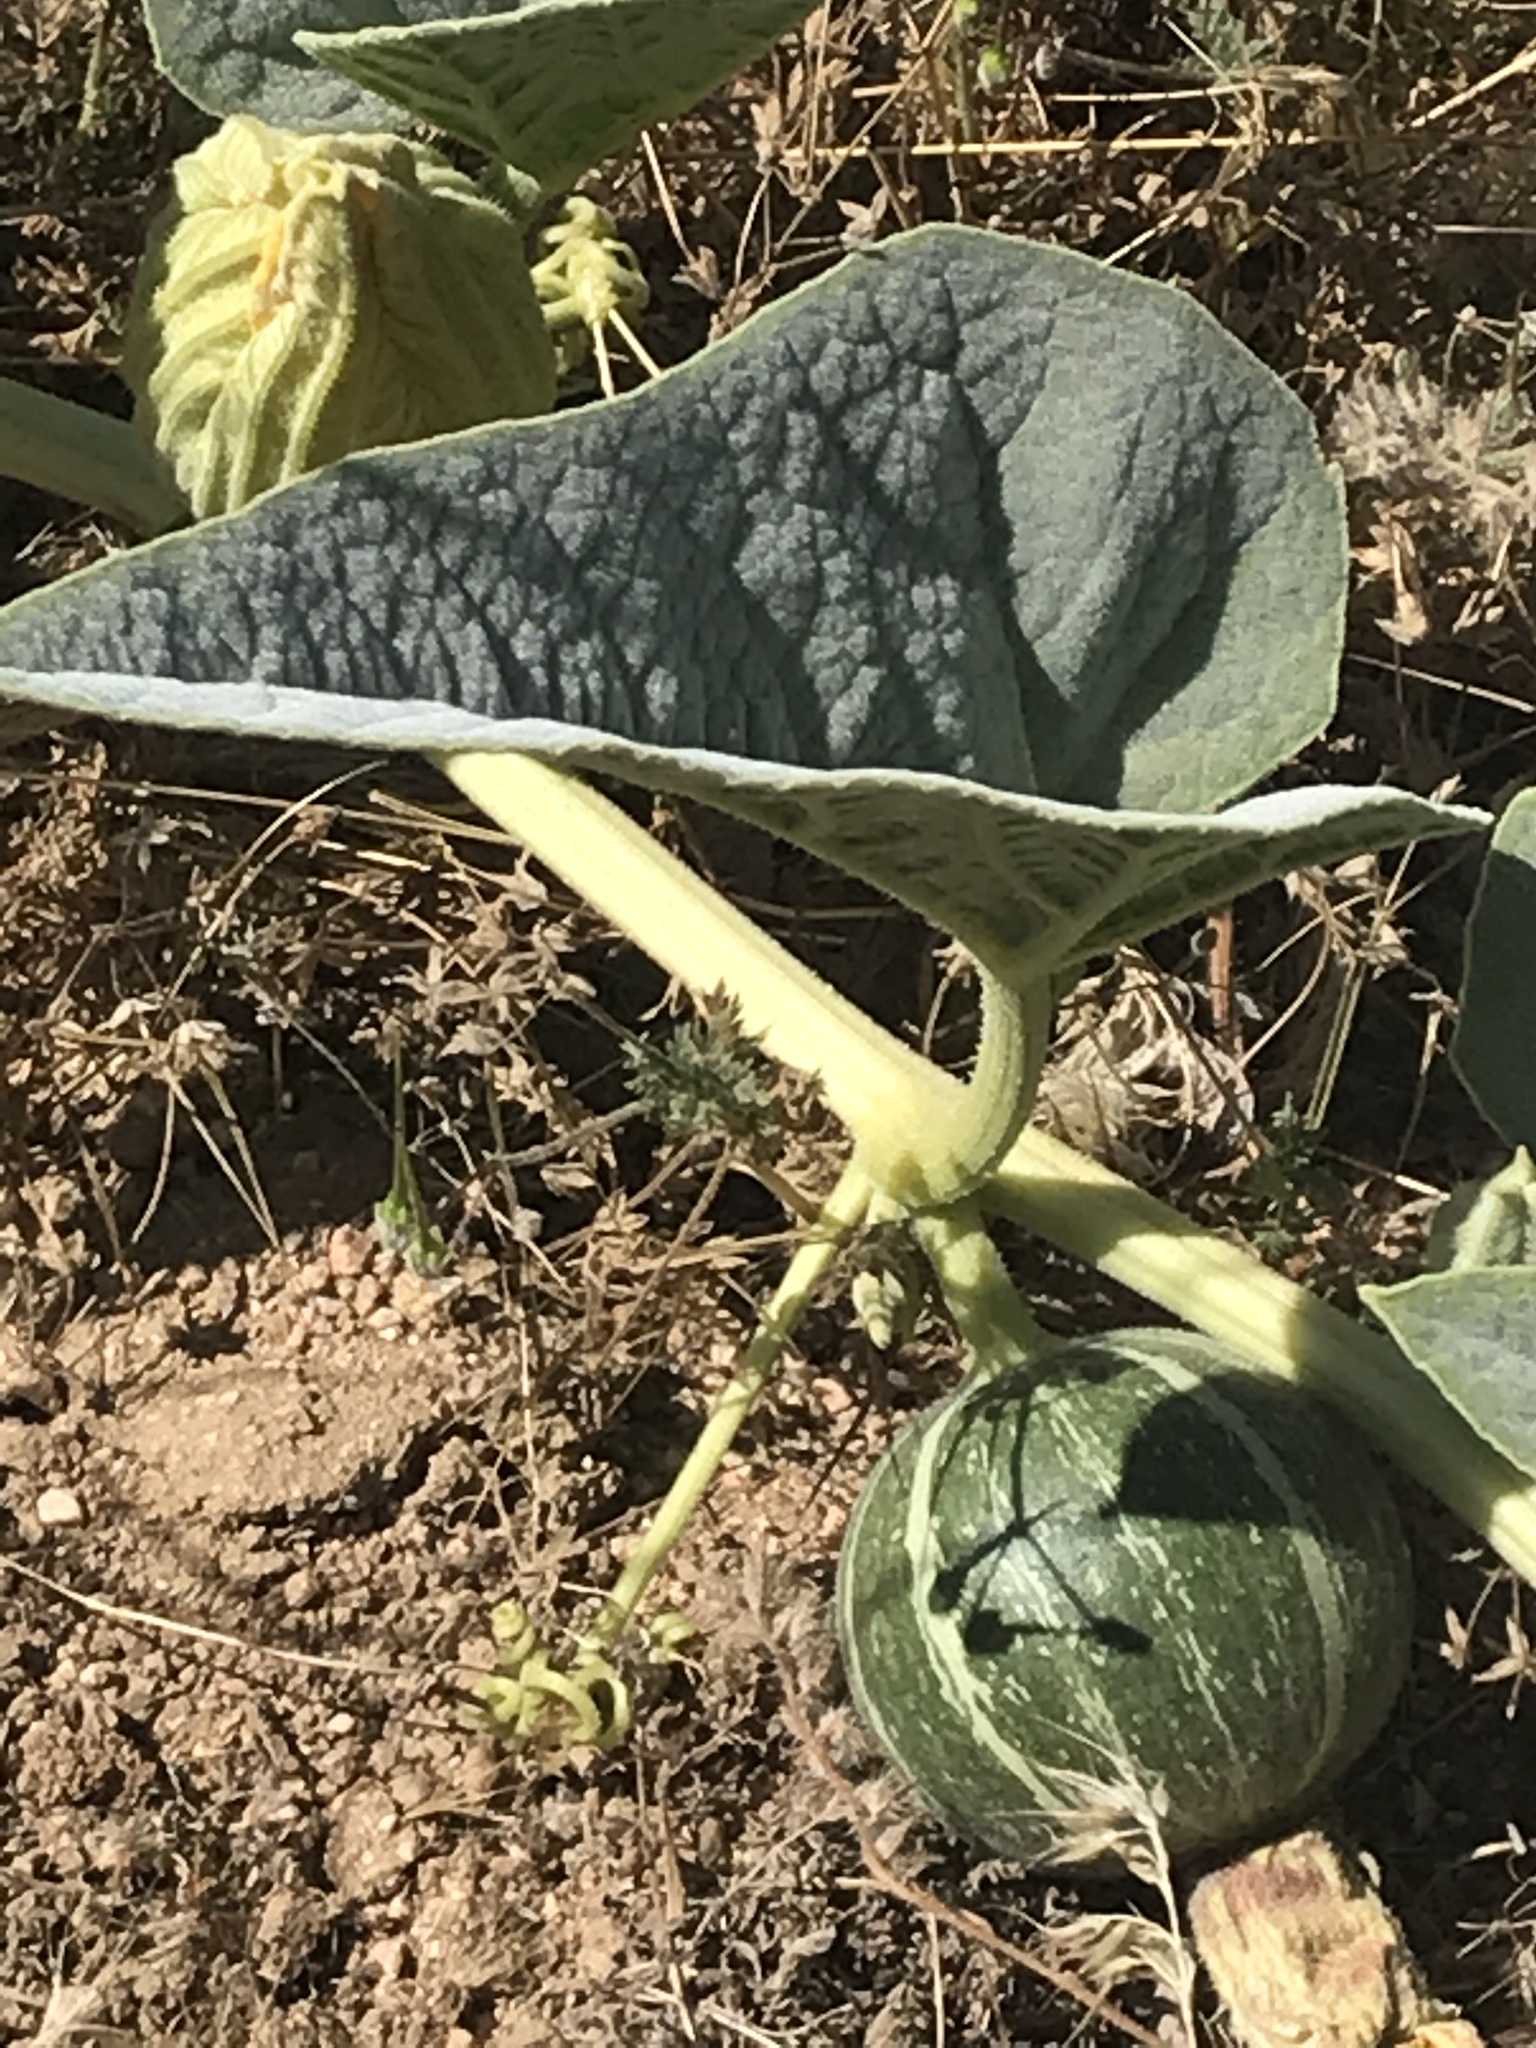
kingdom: Plantae
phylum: Tracheophyta
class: Magnoliopsida
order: Cucurbitales
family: Cucurbitaceae
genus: Cucurbita
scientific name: Cucurbita foetidissima
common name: Buffalo gourd
